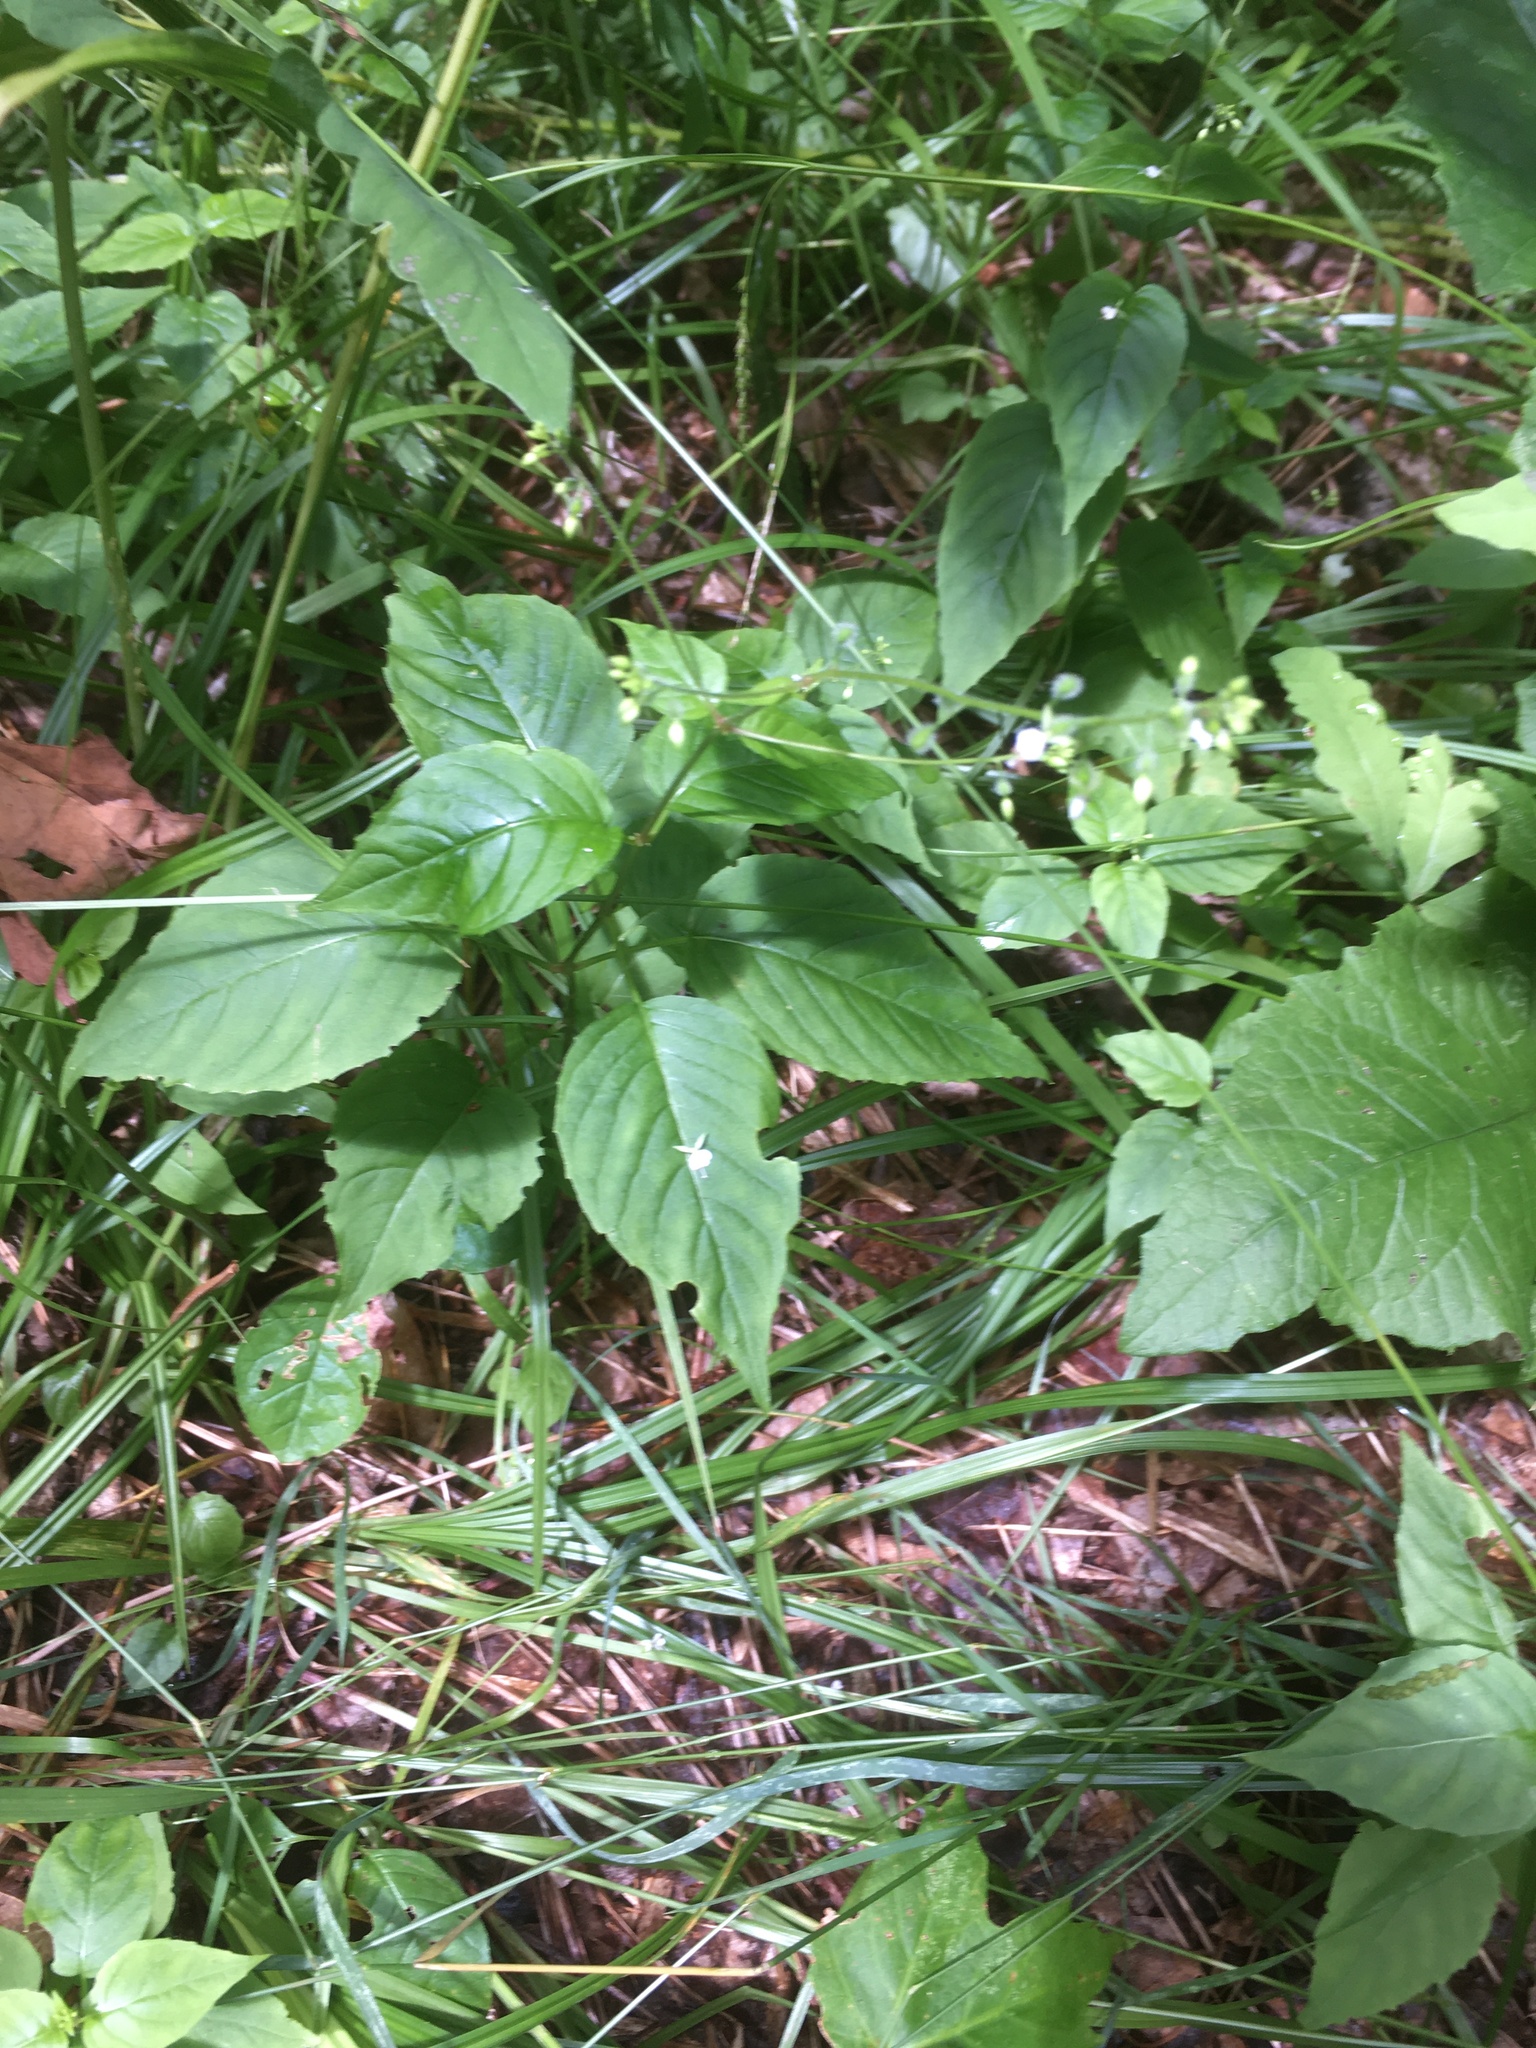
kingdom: Plantae
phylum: Tracheophyta
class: Magnoliopsida
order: Myrtales
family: Onagraceae
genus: Circaea
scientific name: Circaea canadensis
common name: Broad-leaved enchanter's nightshade
